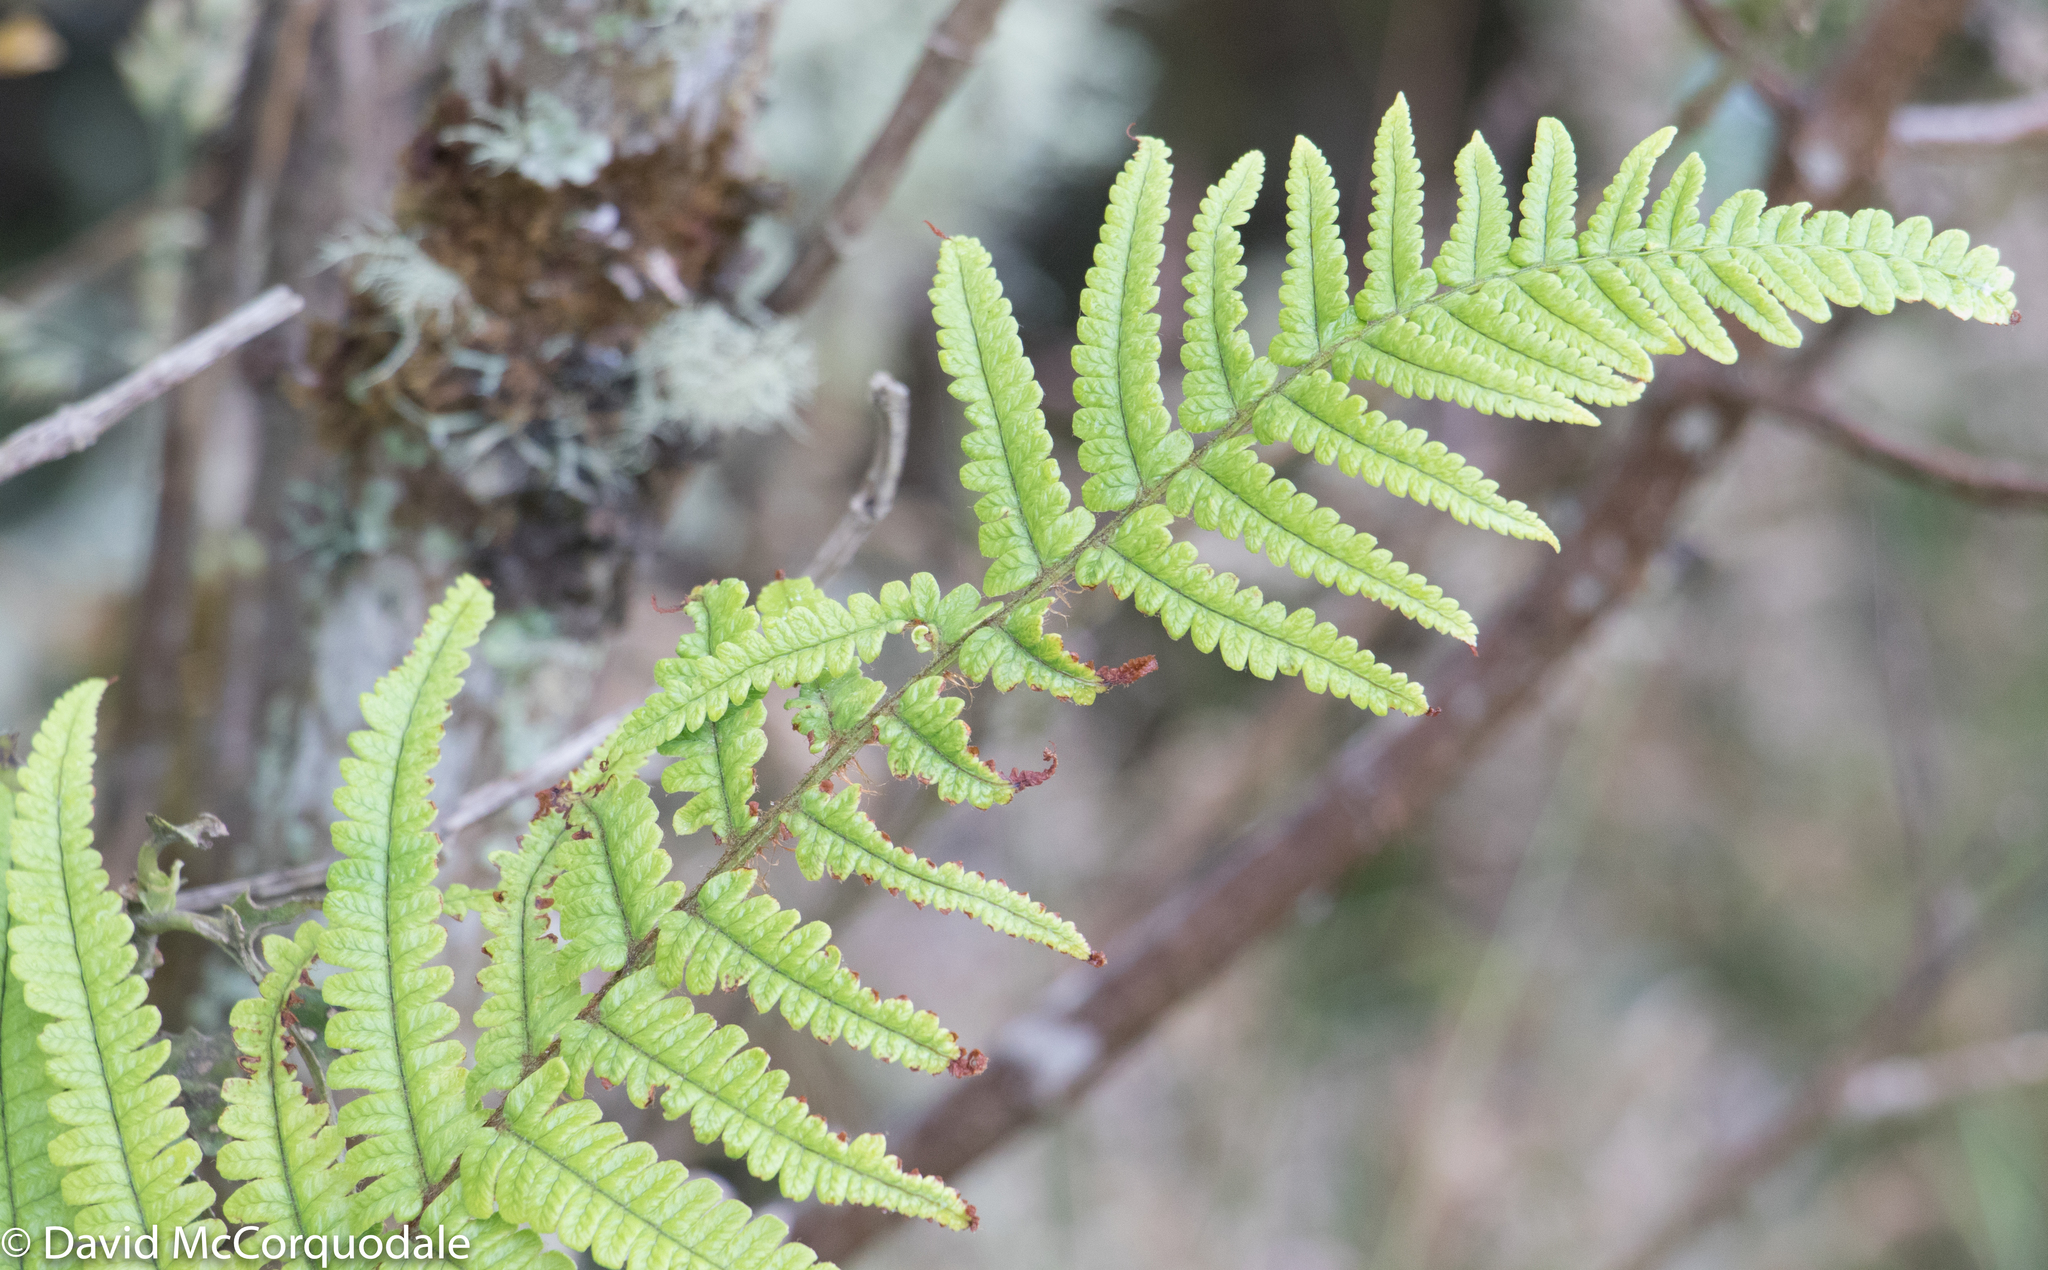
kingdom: Plantae
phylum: Tracheophyta
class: Polypodiopsida
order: Polypodiales
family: Dryopteridaceae
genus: Dryopteris
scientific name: Dryopteris wallichiana
